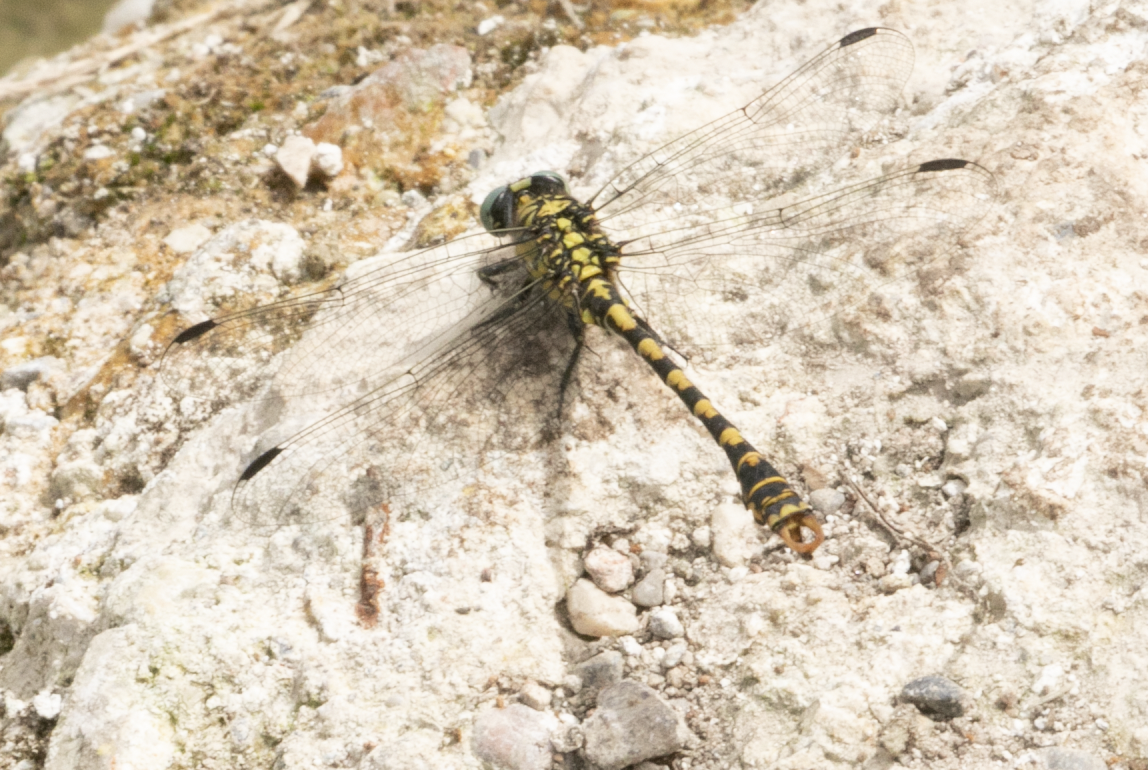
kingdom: Animalia
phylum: Arthropoda
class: Insecta
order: Odonata
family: Gomphidae
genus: Onychogomphus
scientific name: Onychogomphus forcipatus
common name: Small pincertail
